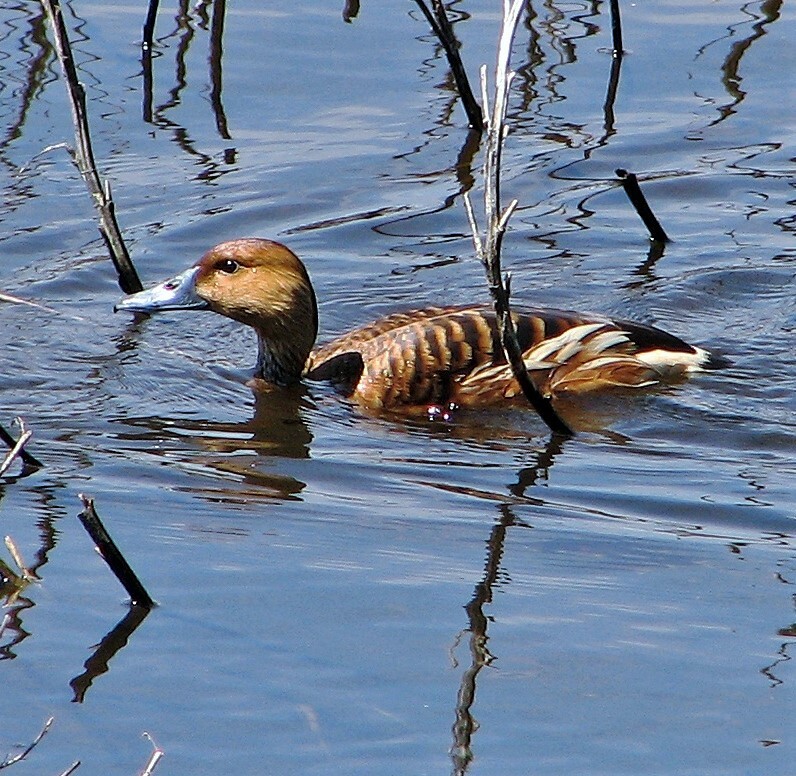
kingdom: Animalia
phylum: Chordata
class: Aves
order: Anseriformes
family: Anatidae
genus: Dendrocygna
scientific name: Dendrocygna bicolor
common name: Fulvous whistling duck
